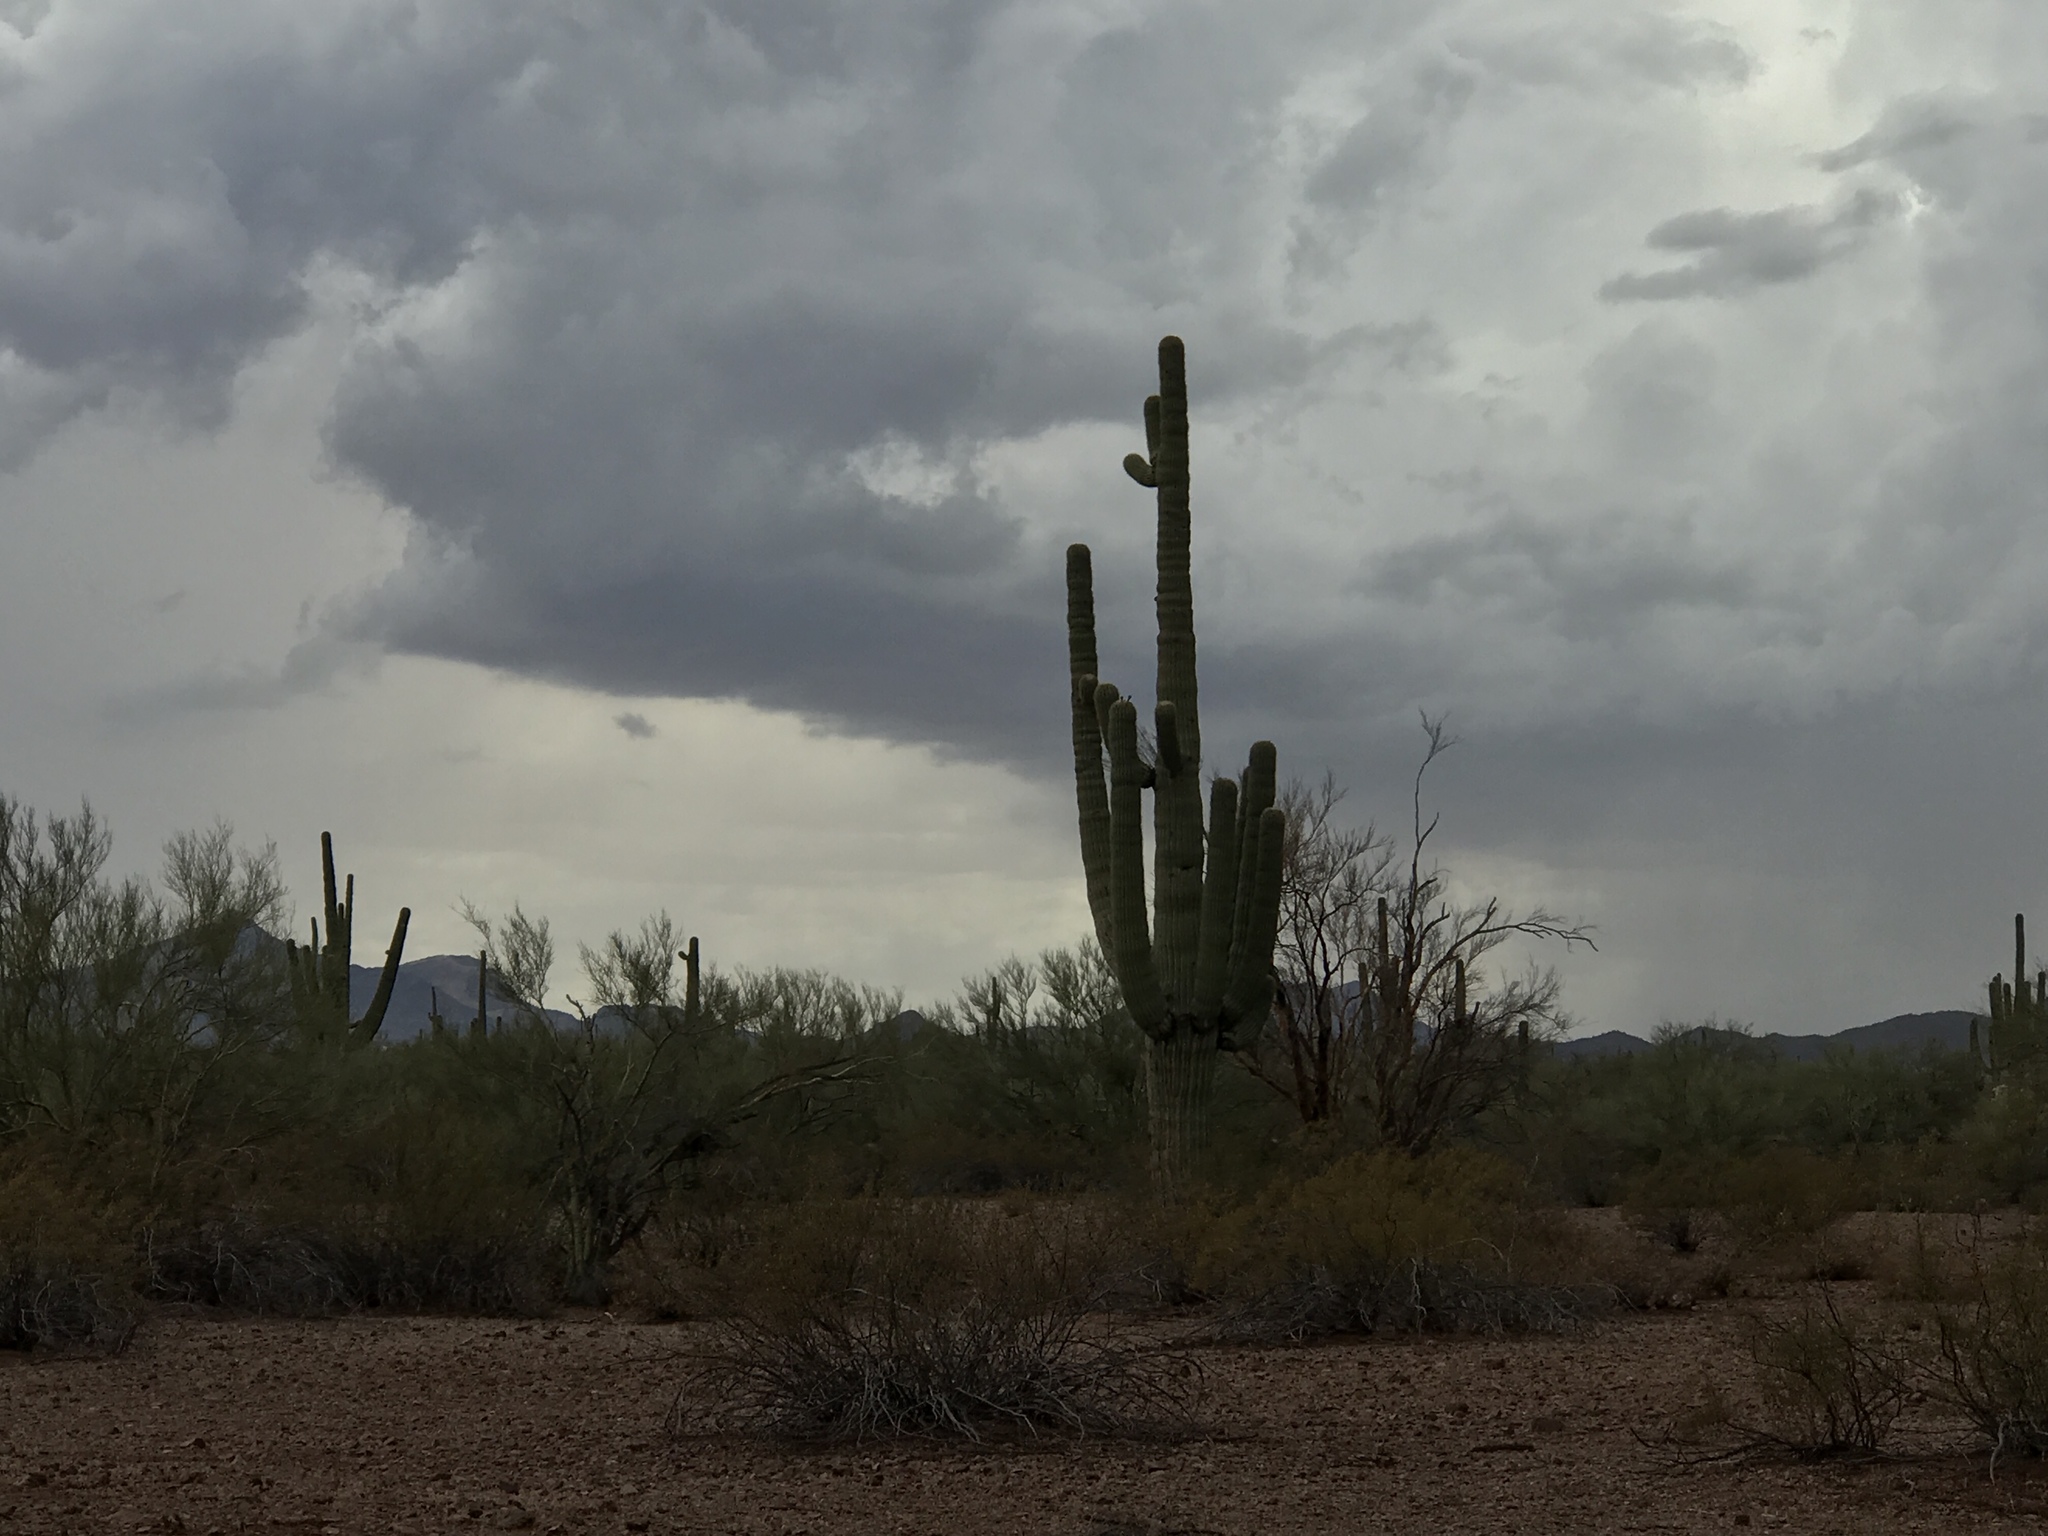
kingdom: Plantae
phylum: Tracheophyta
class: Magnoliopsida
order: Caryophyllales
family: Cactaceae
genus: Carnegiea
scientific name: Carnegiea gigantea
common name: Saguaro
